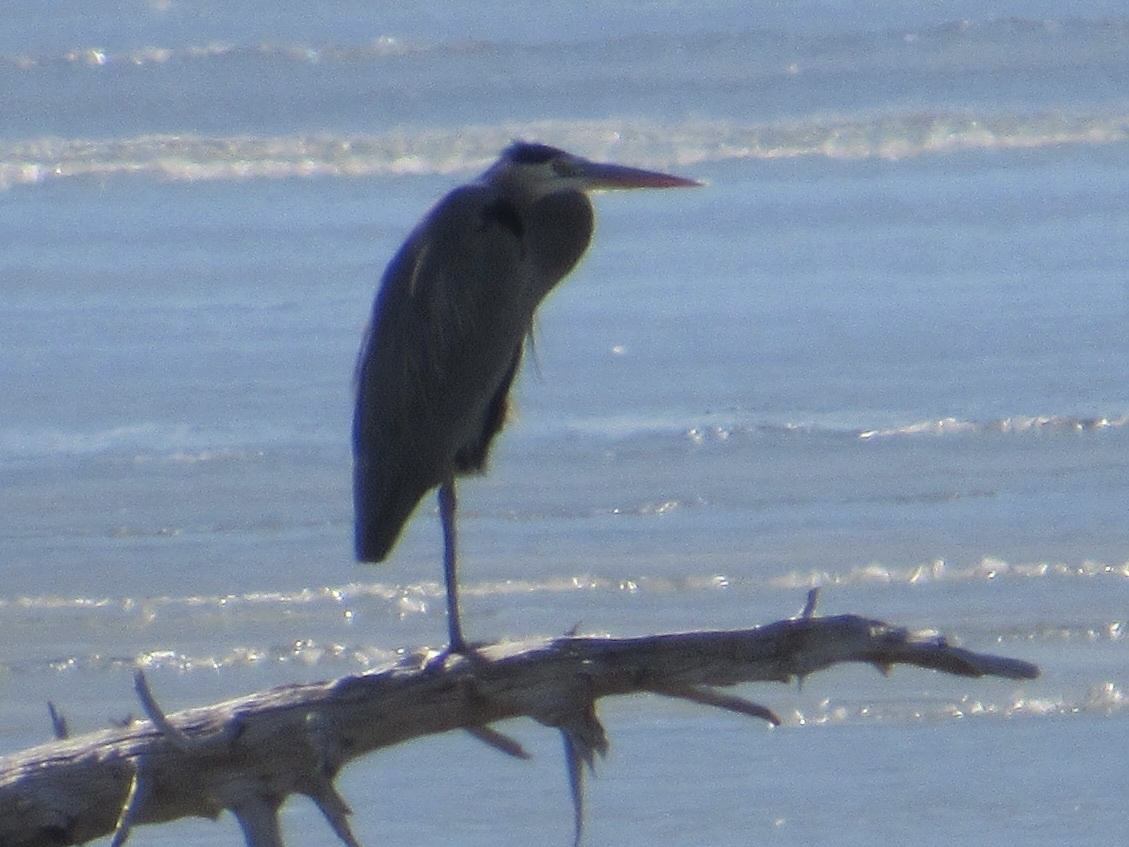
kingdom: Animalia
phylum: Chordata
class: Aves
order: Pelecaniformes
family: Ardeidae
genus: Ardea
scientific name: Ardea herodias
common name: Great blue heron
